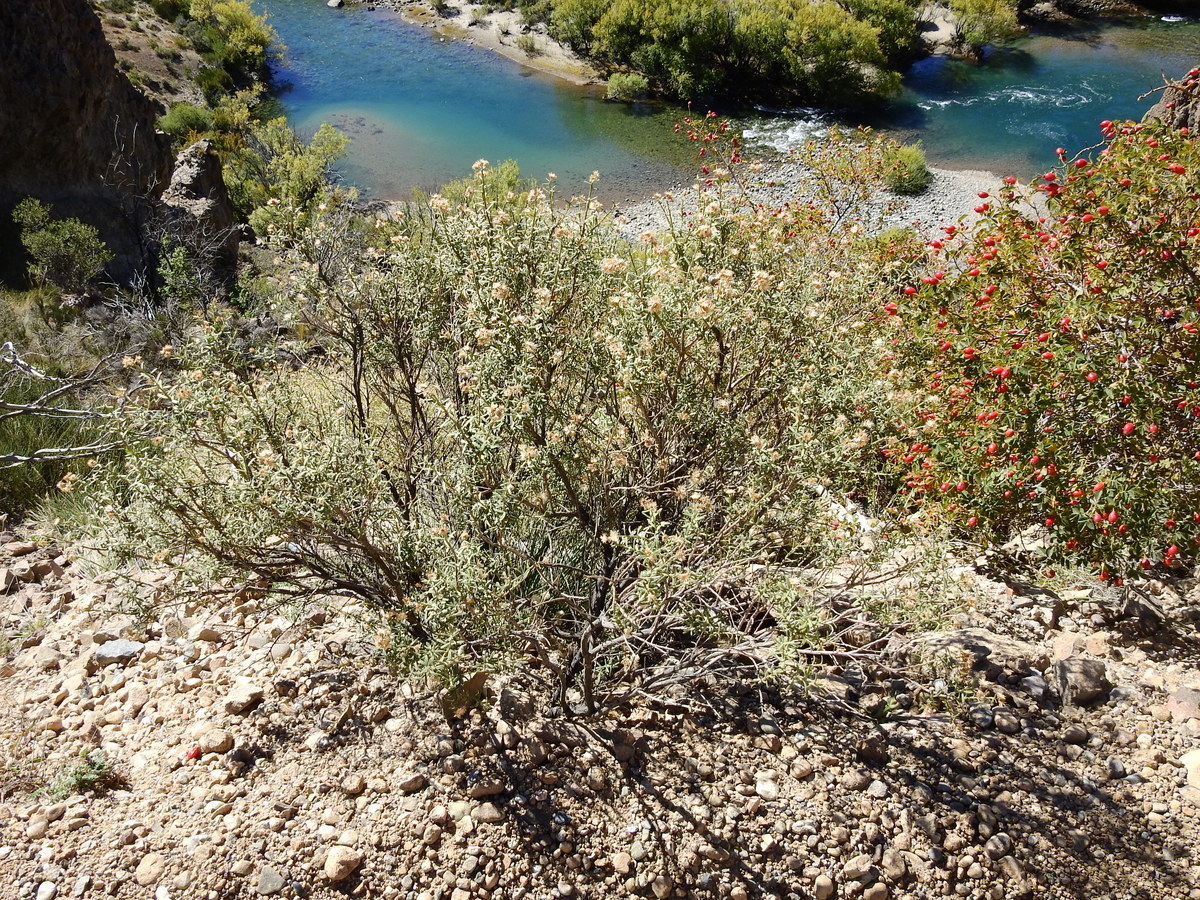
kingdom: Plantae
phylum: Tracheophyta
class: Magnoliopsida
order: Asterales
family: Asteraceae
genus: Baccharis
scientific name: Baccharis linearis
